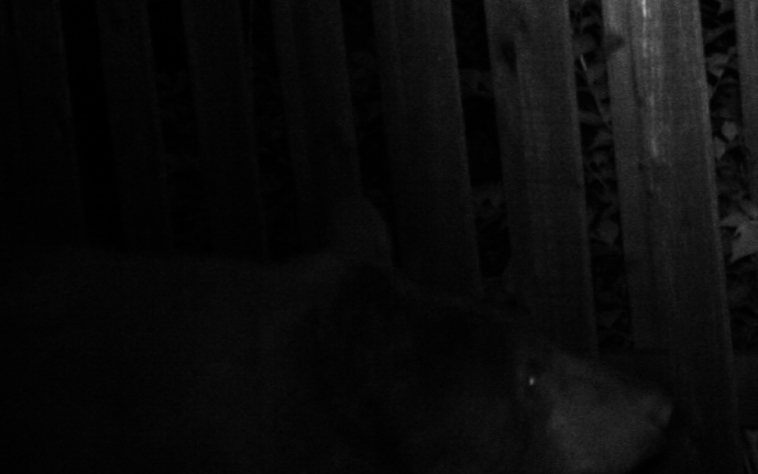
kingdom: Animalia
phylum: Chordata
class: Mammalia
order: Carnivora
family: Ursidae
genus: Ursus
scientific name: Ursus americanus
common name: American black bear
